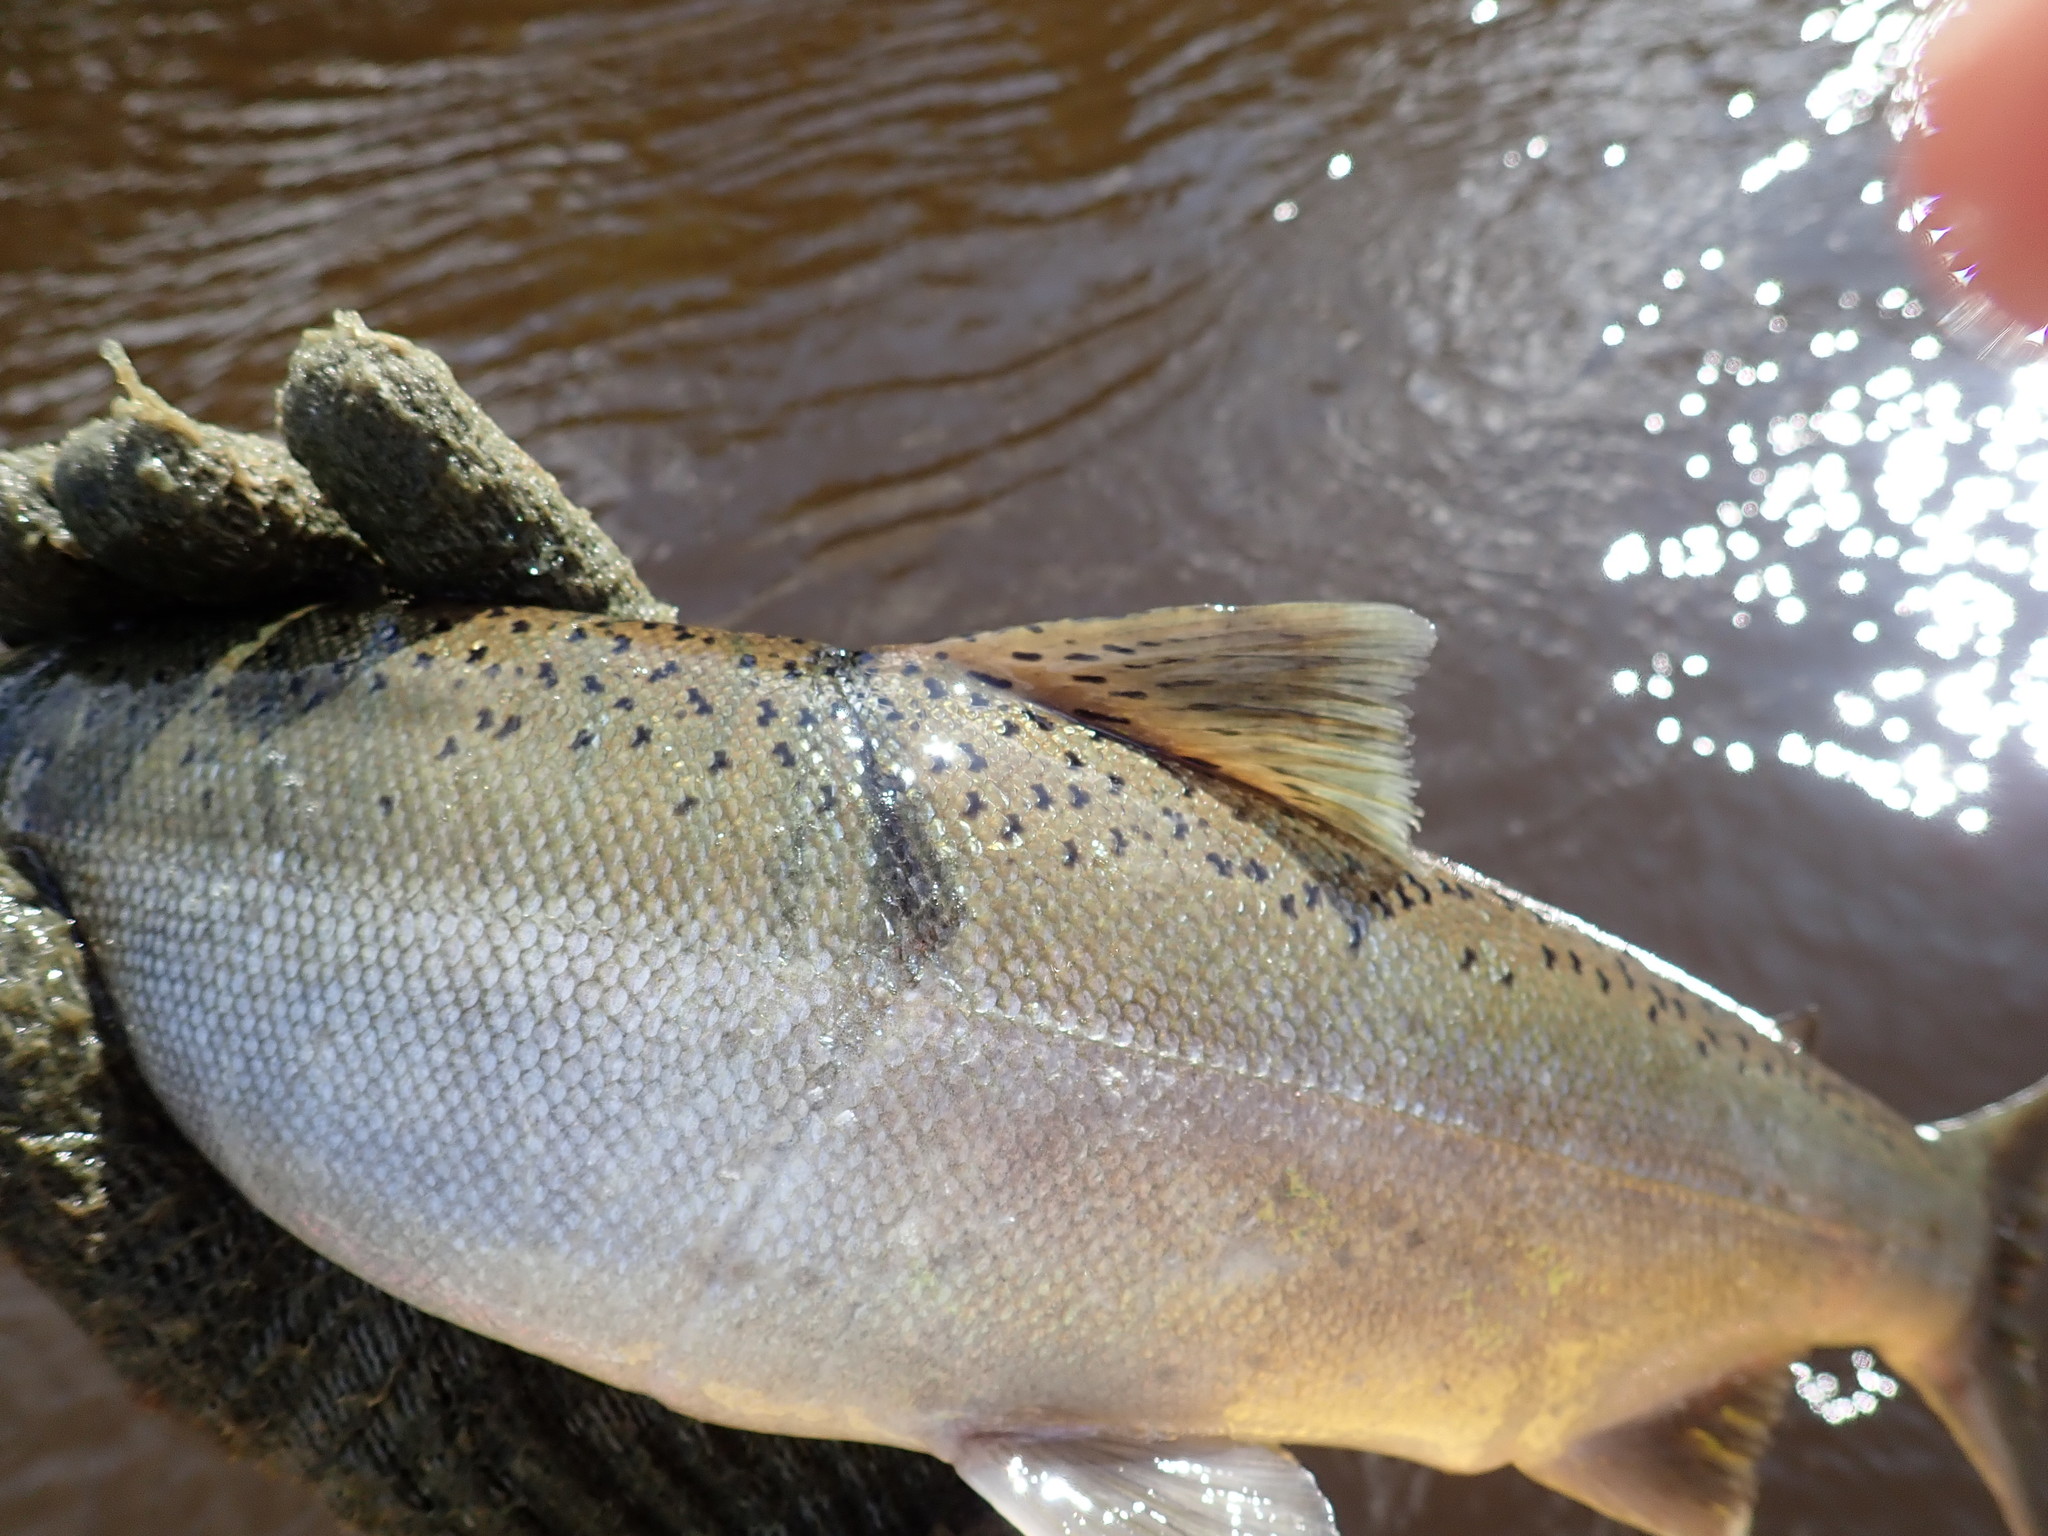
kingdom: Animalia
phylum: Chordata
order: Salmoniformes
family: Salmonidae
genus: Oncorhynchus
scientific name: Oncorhynchus kisutch
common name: Coho salmon
